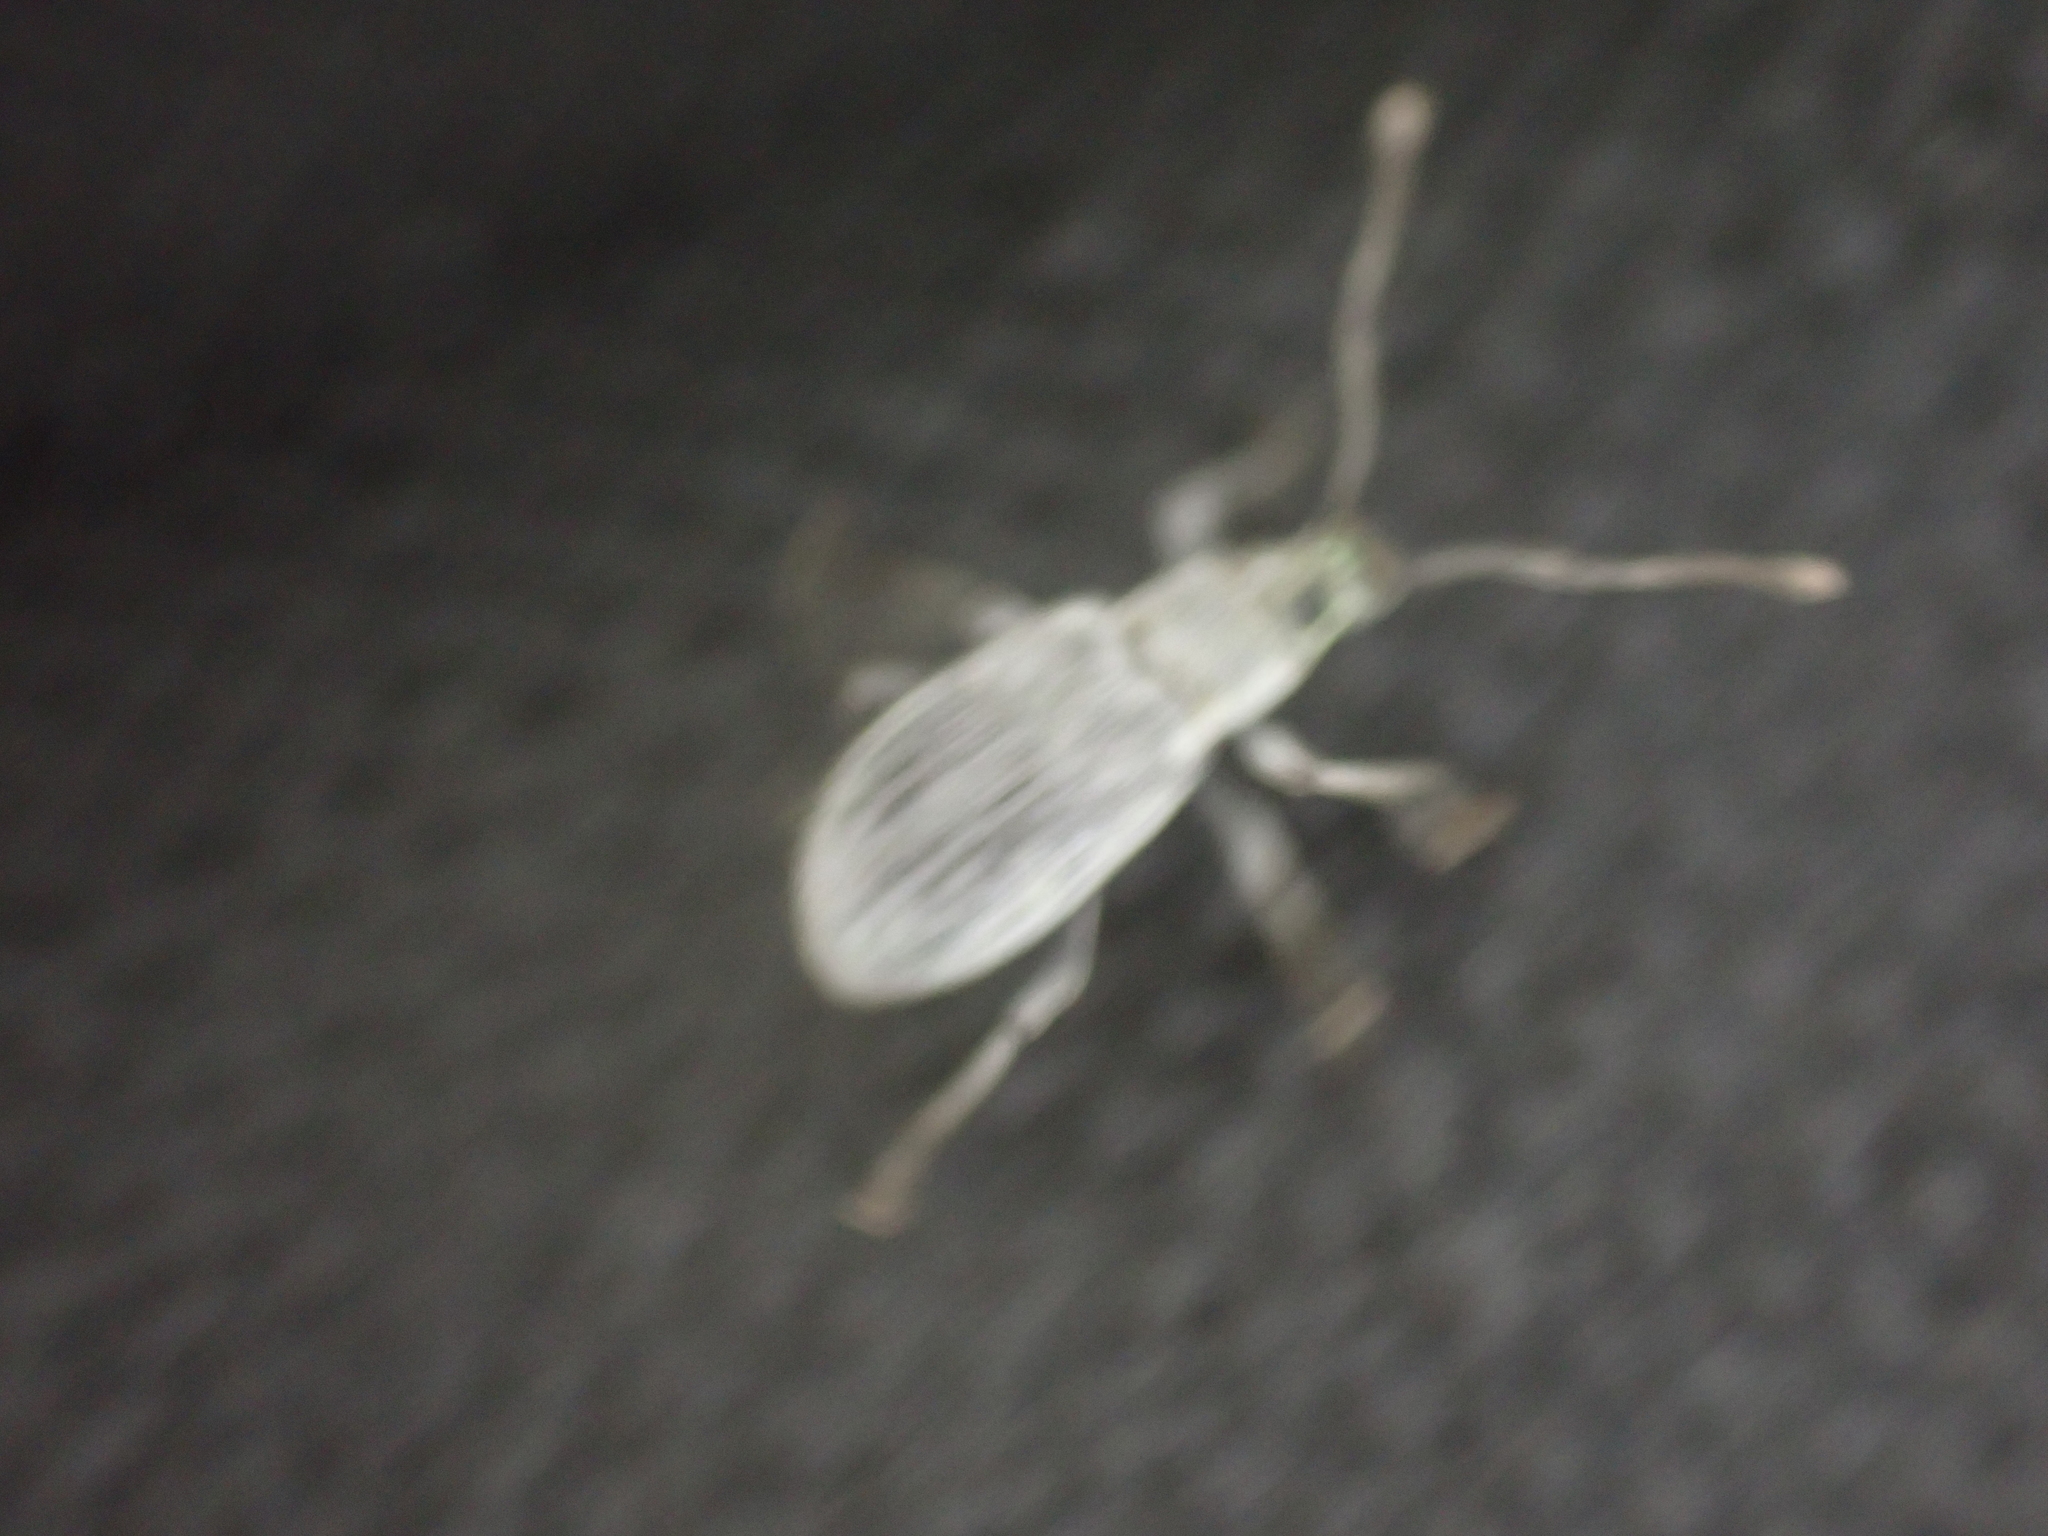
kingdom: Animalia
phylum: Arthropoda
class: Insecta
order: Coleoptera
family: Curculionidae
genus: Cyrtepistomus
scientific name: Cyrtepistomus castaneus
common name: Weevil
